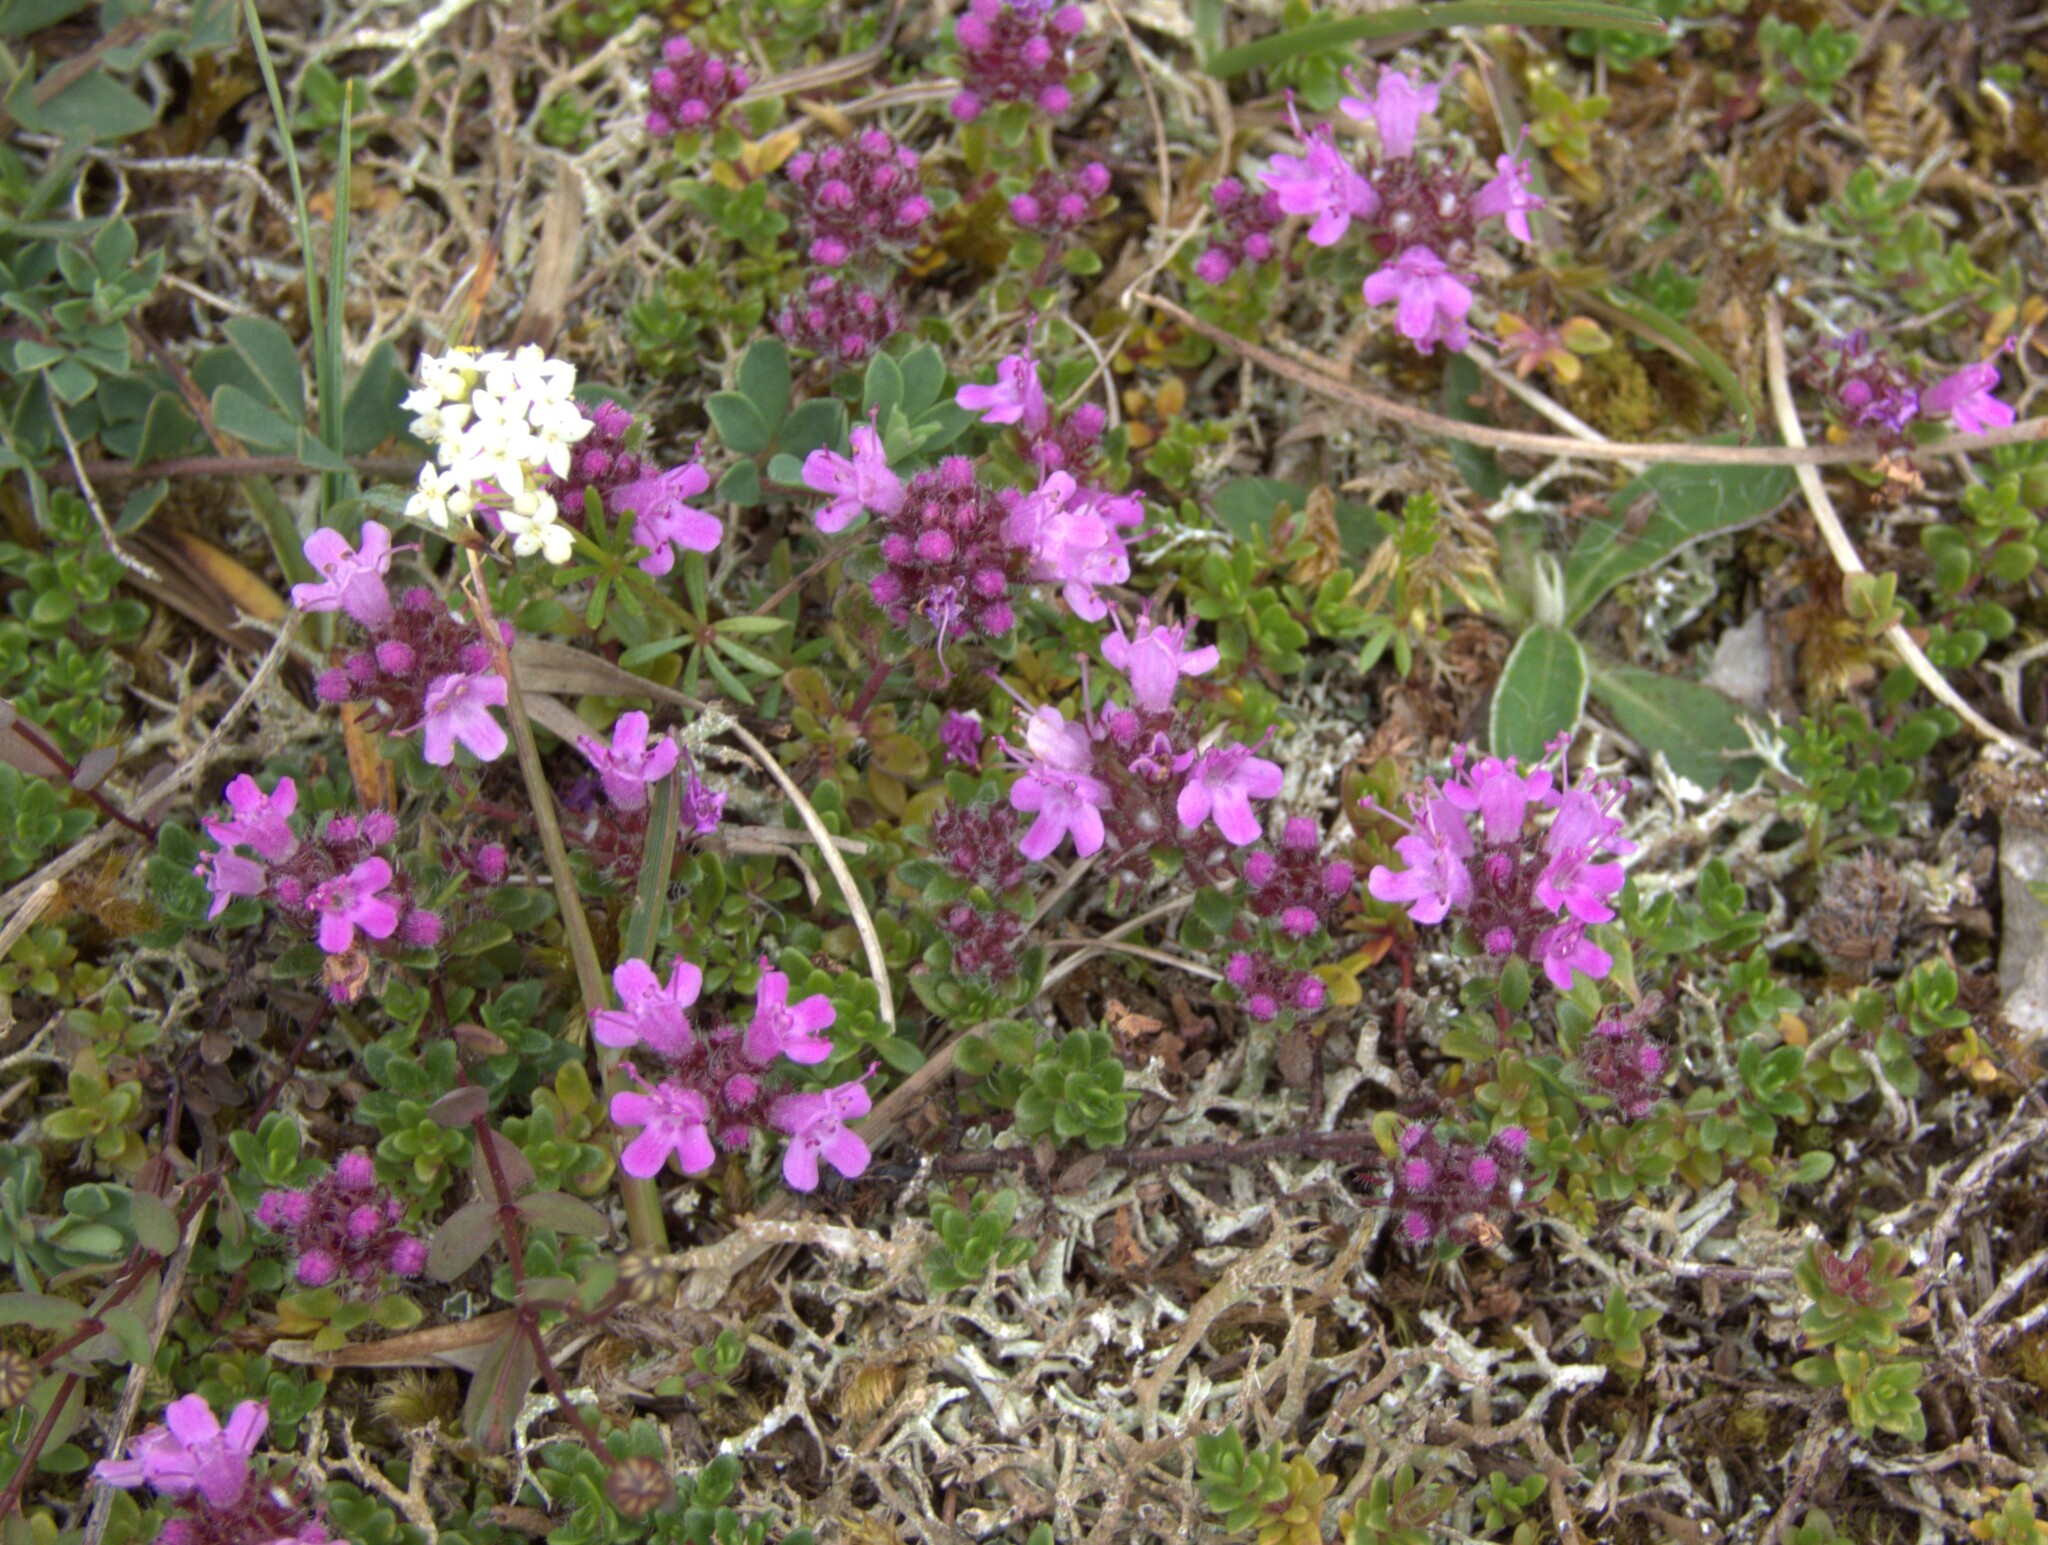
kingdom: Plantae
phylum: Tracheophyta
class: Magnoliopsida
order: Lamiales
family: Lamiaceae
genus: Thymus
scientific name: Thymus praecox
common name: Wild thyme
